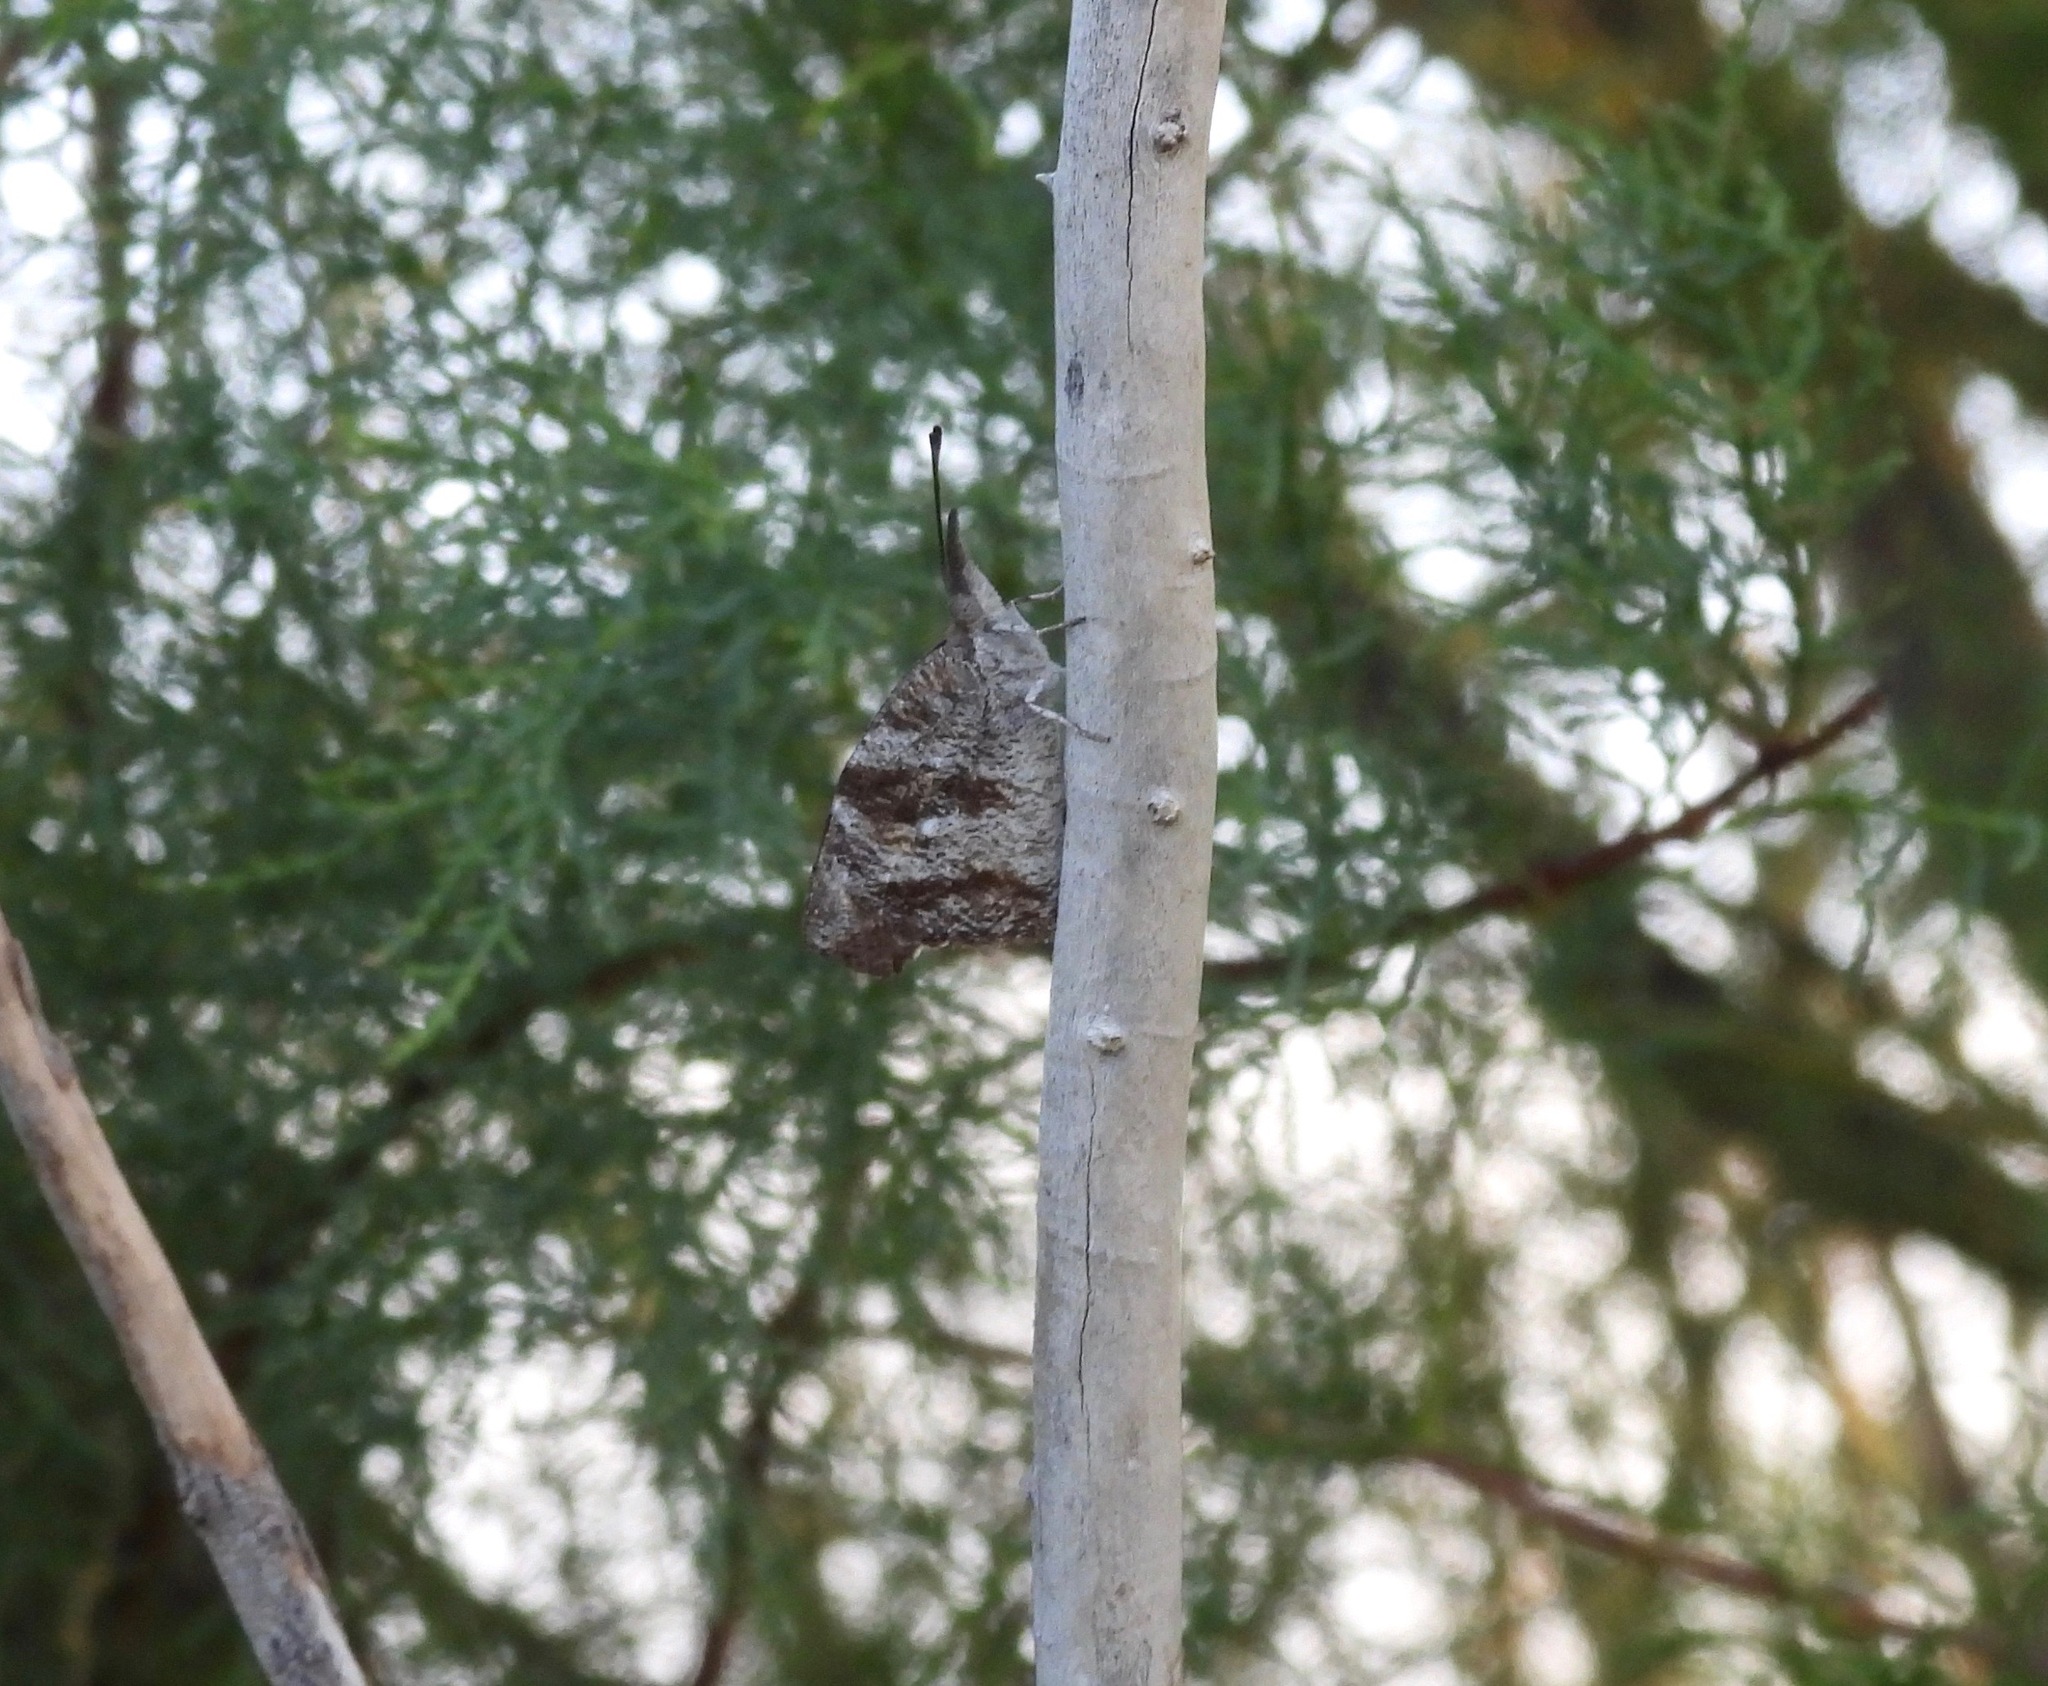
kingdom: Animalia
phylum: Arthropoda
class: Insecta
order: Lepidoptera
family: Nymphalidae
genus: Libytheana
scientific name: Libytheana carinenta
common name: American snout
